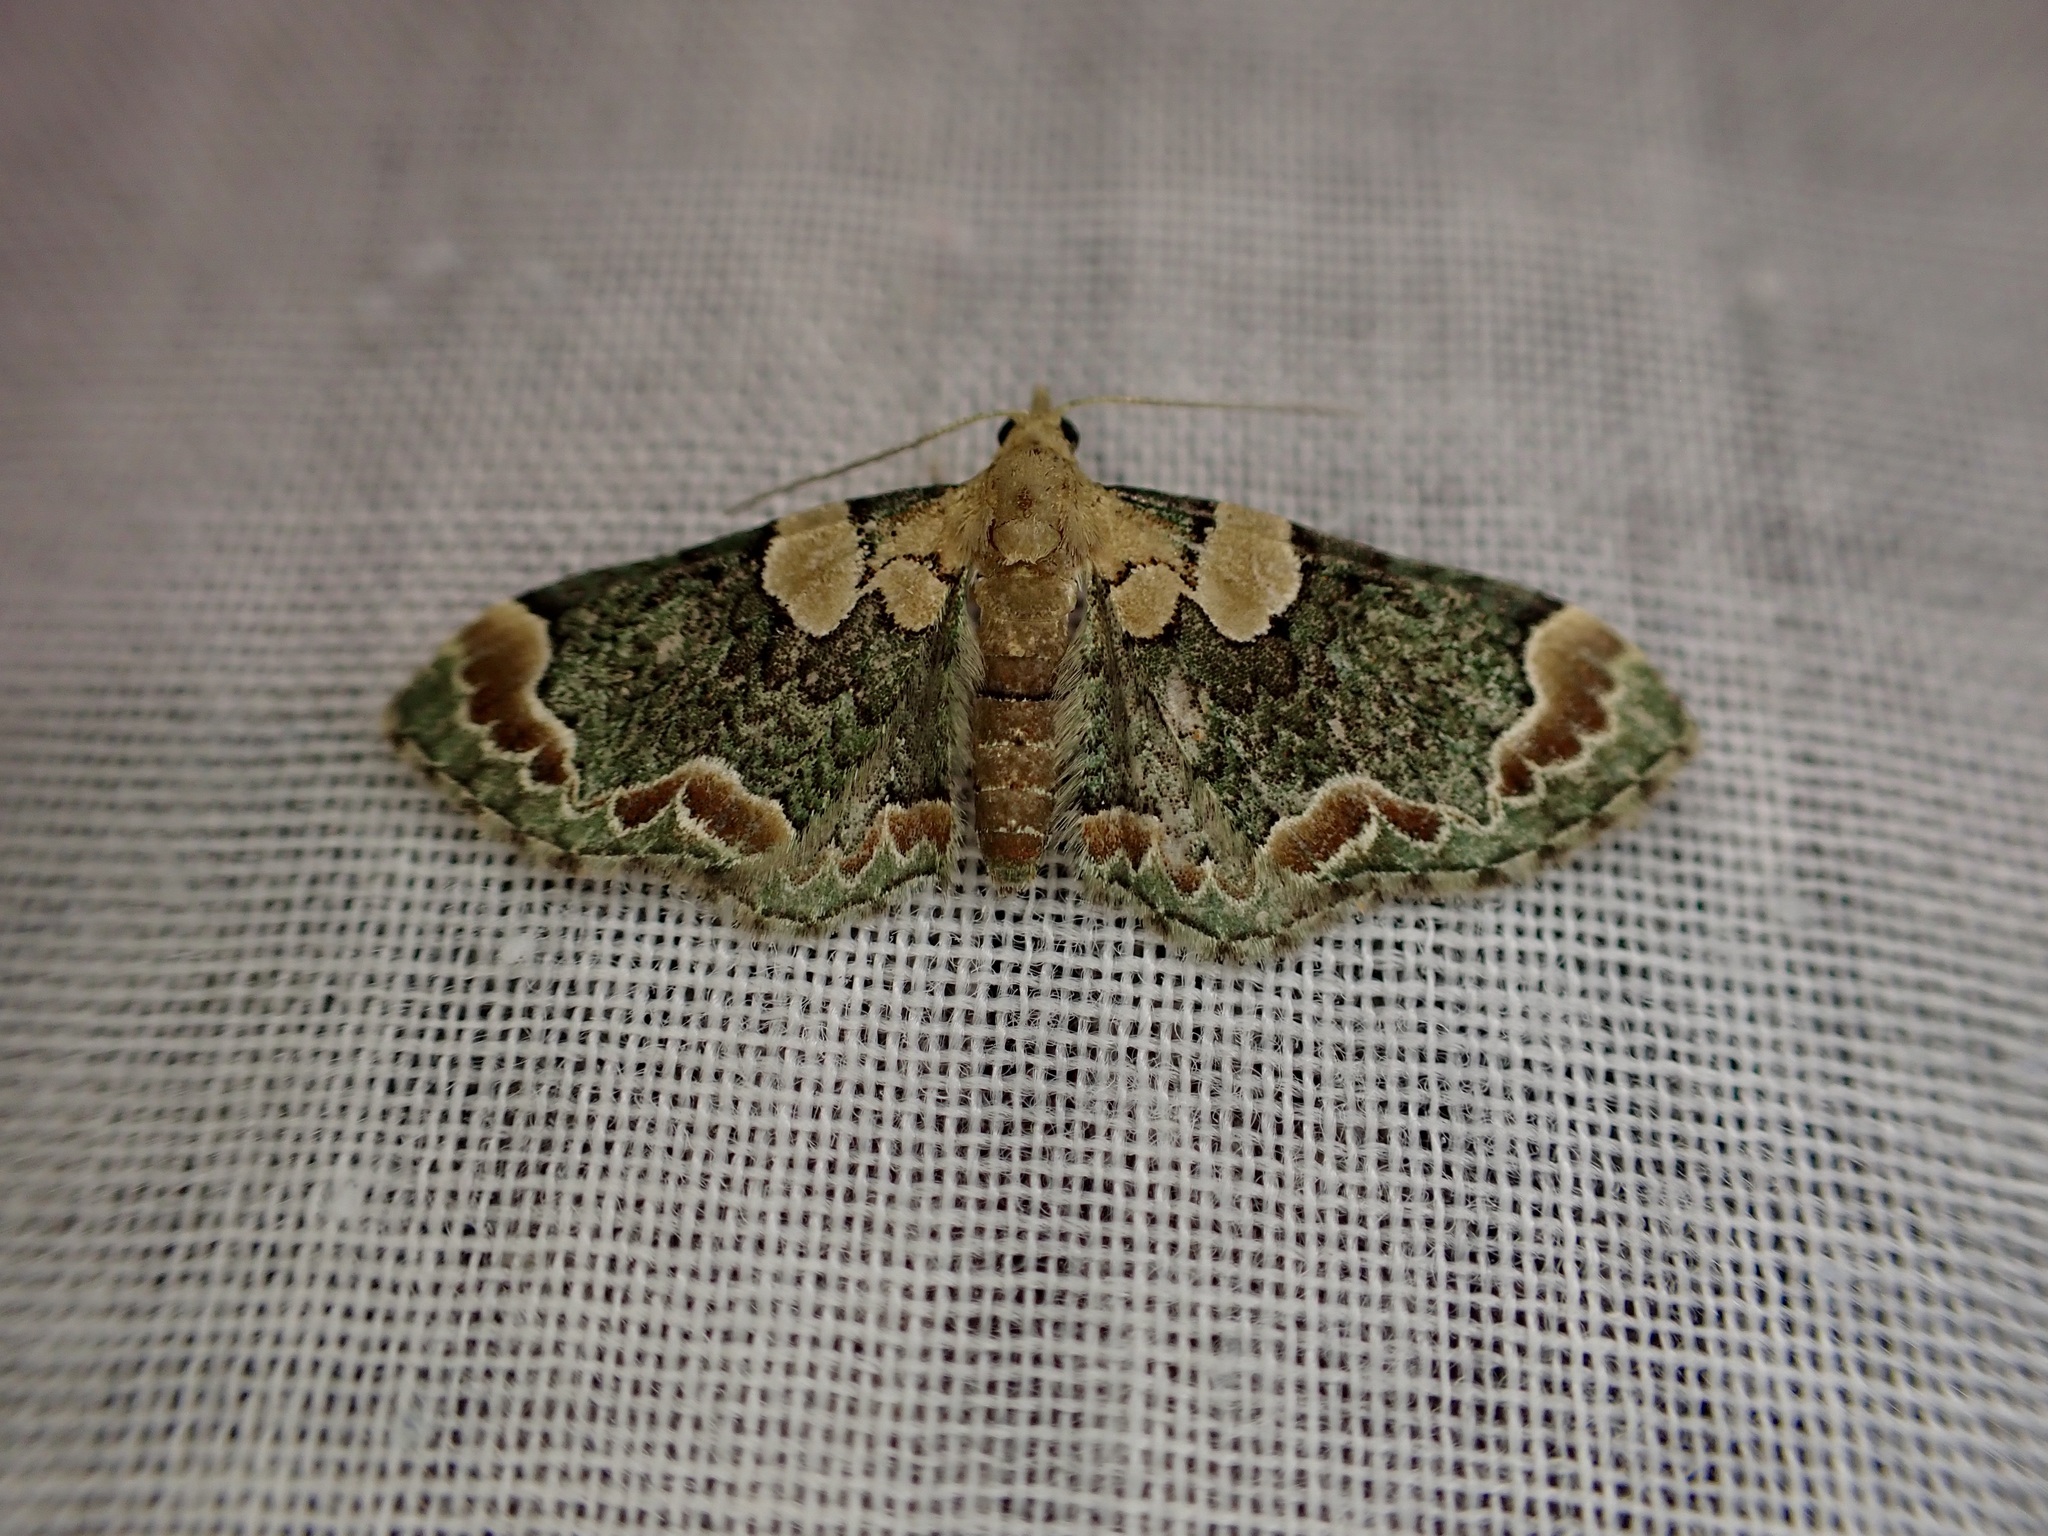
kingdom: Animalia
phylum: Arthropoda
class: Insecta
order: Lepidoptera
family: Geometridae
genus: Chloroclystis
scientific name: Chloroclystis
